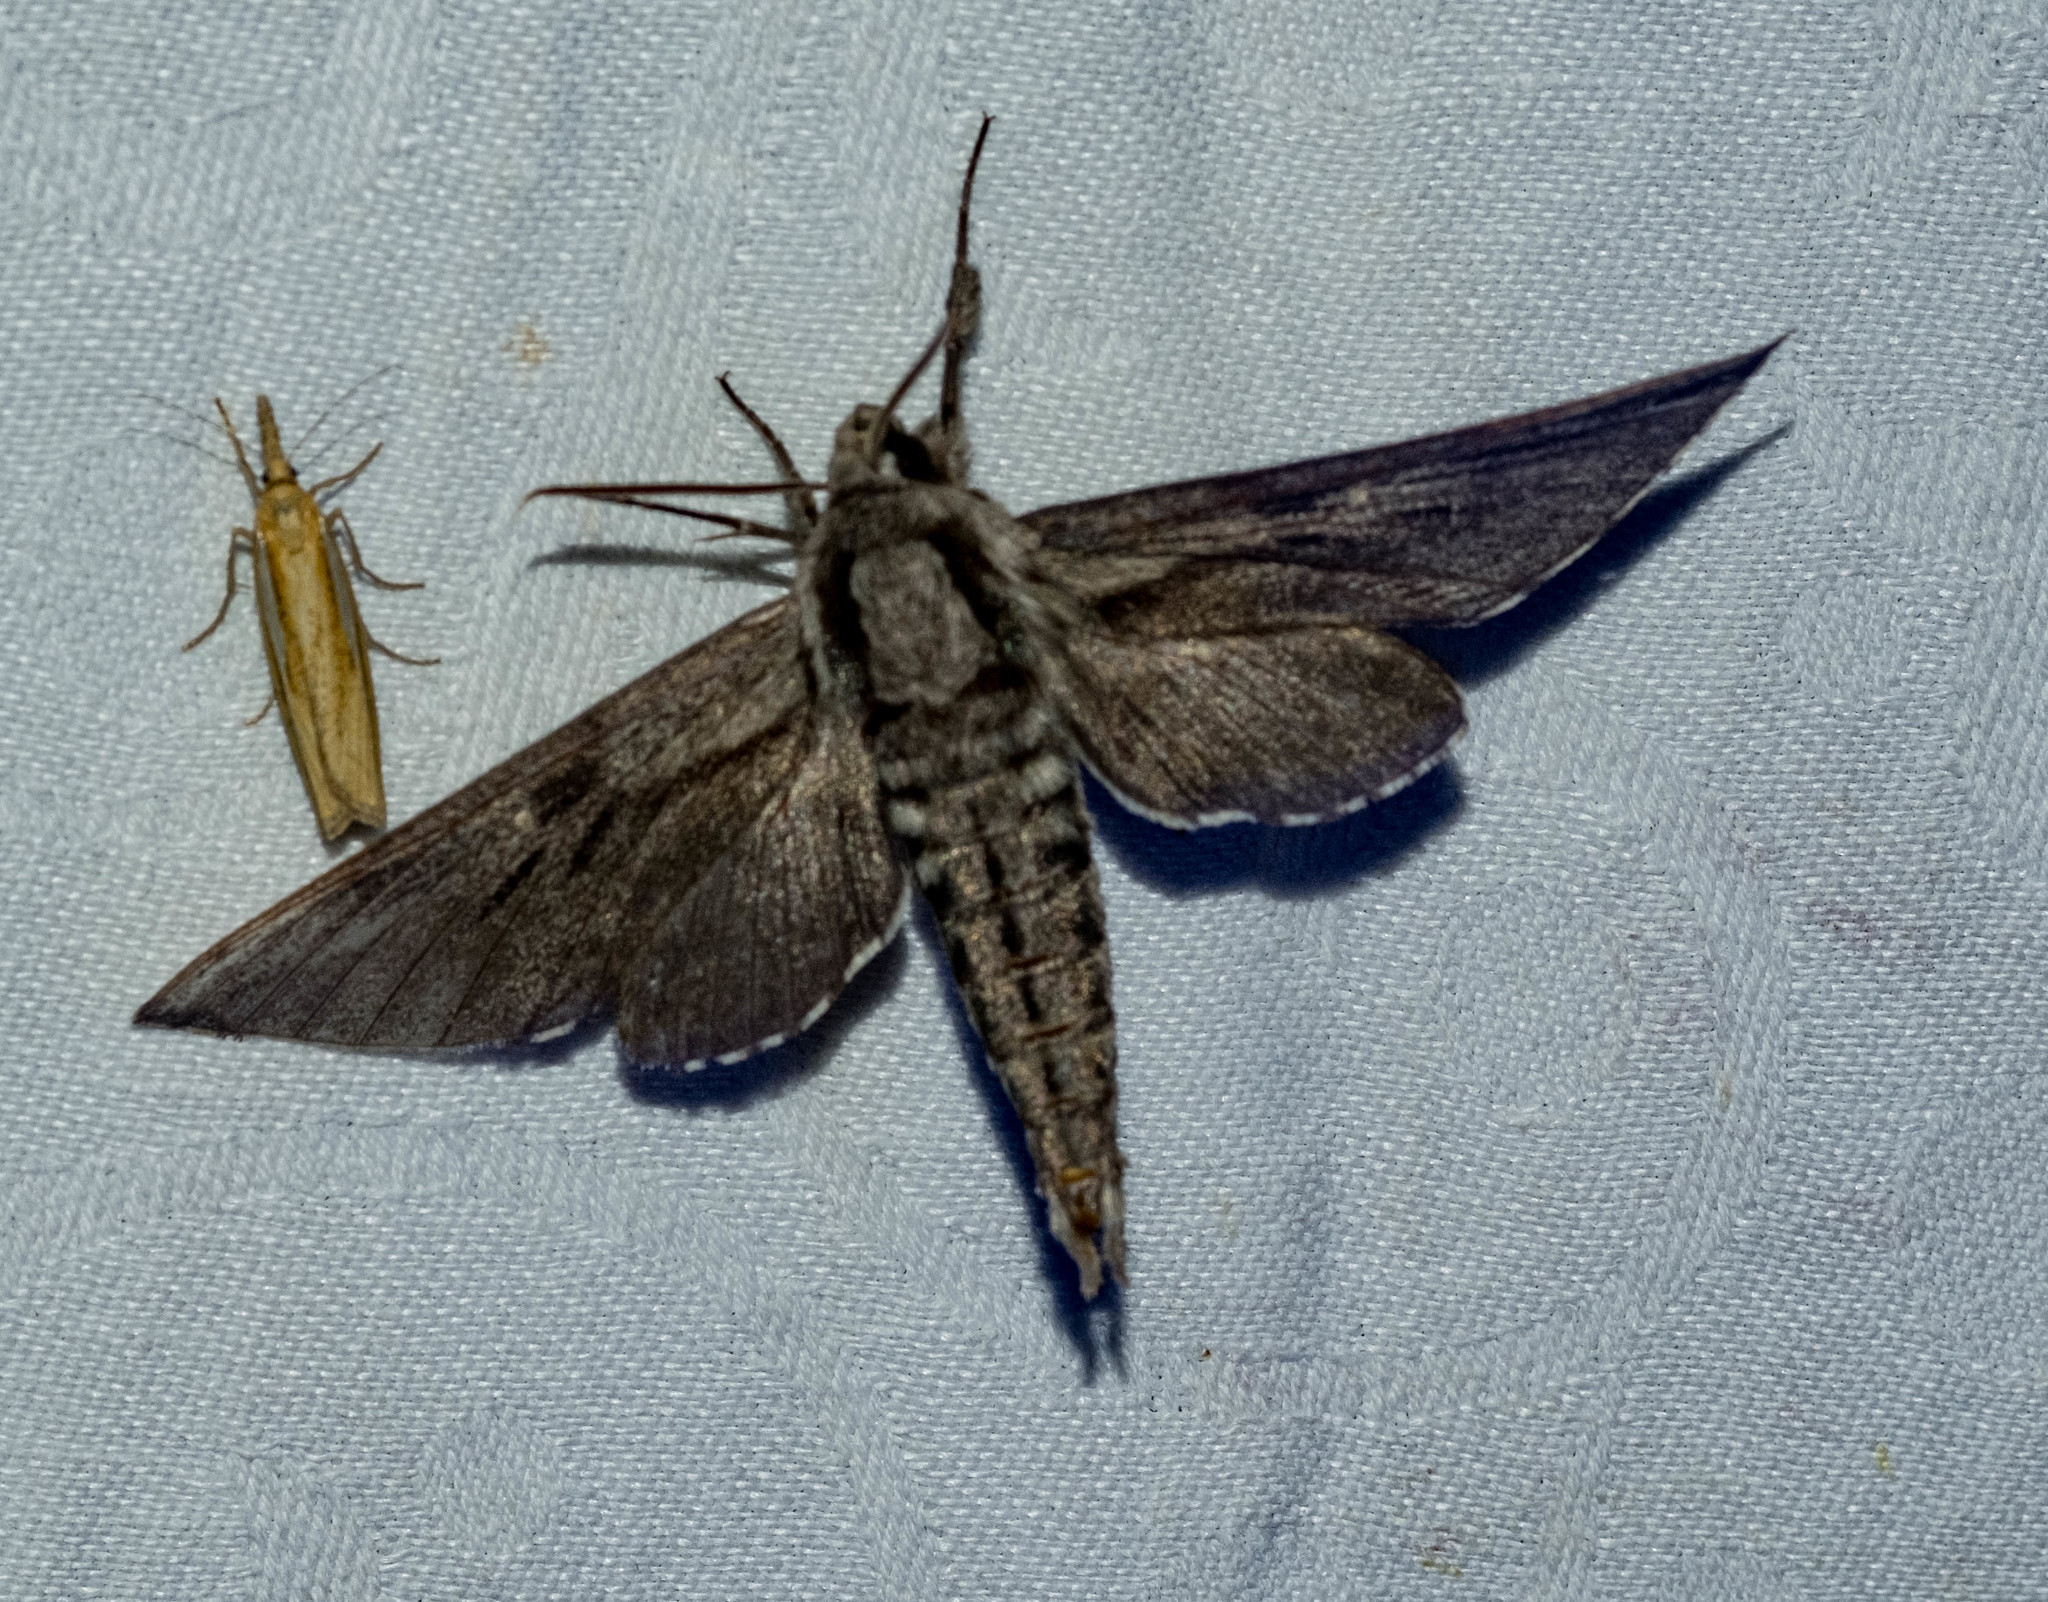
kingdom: Animalia
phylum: Arthropoda
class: Insecta
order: Lepidoptera
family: Sphingidae
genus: Sphinx
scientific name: Sphinx pinastri
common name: Pine hawk-moth
